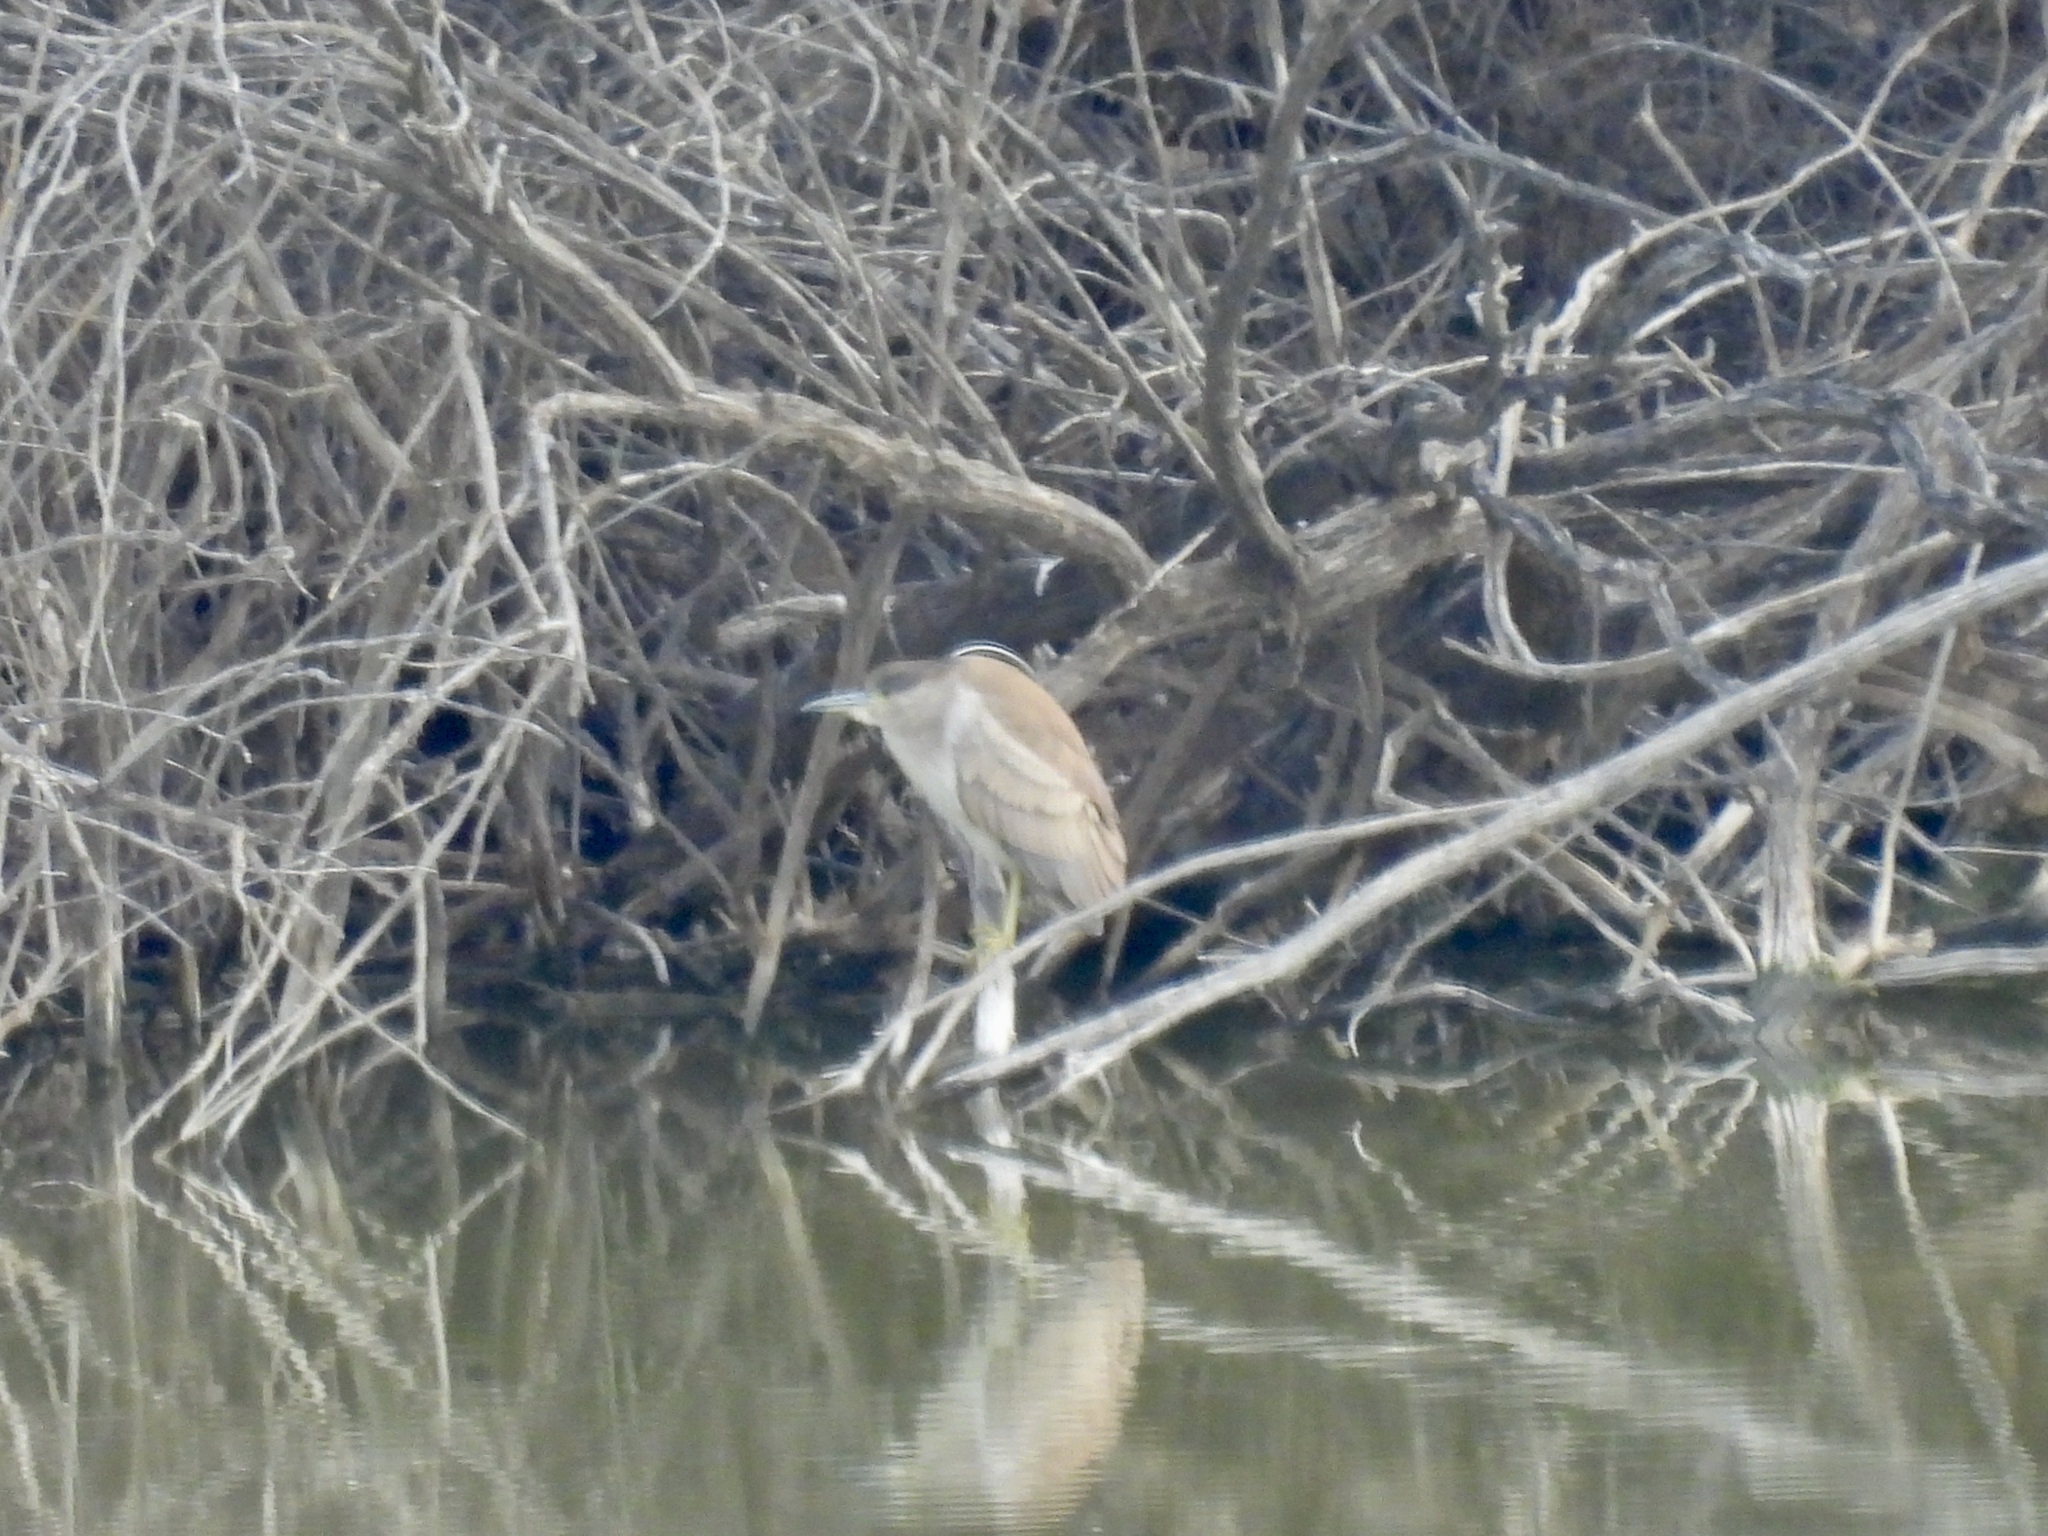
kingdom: Animalia
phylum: Chordata
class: Aves
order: Pelecaniformes
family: Ardeidae
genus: Nycticorax
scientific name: Nycticorax nycticorax
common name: Black-crowned night heron
